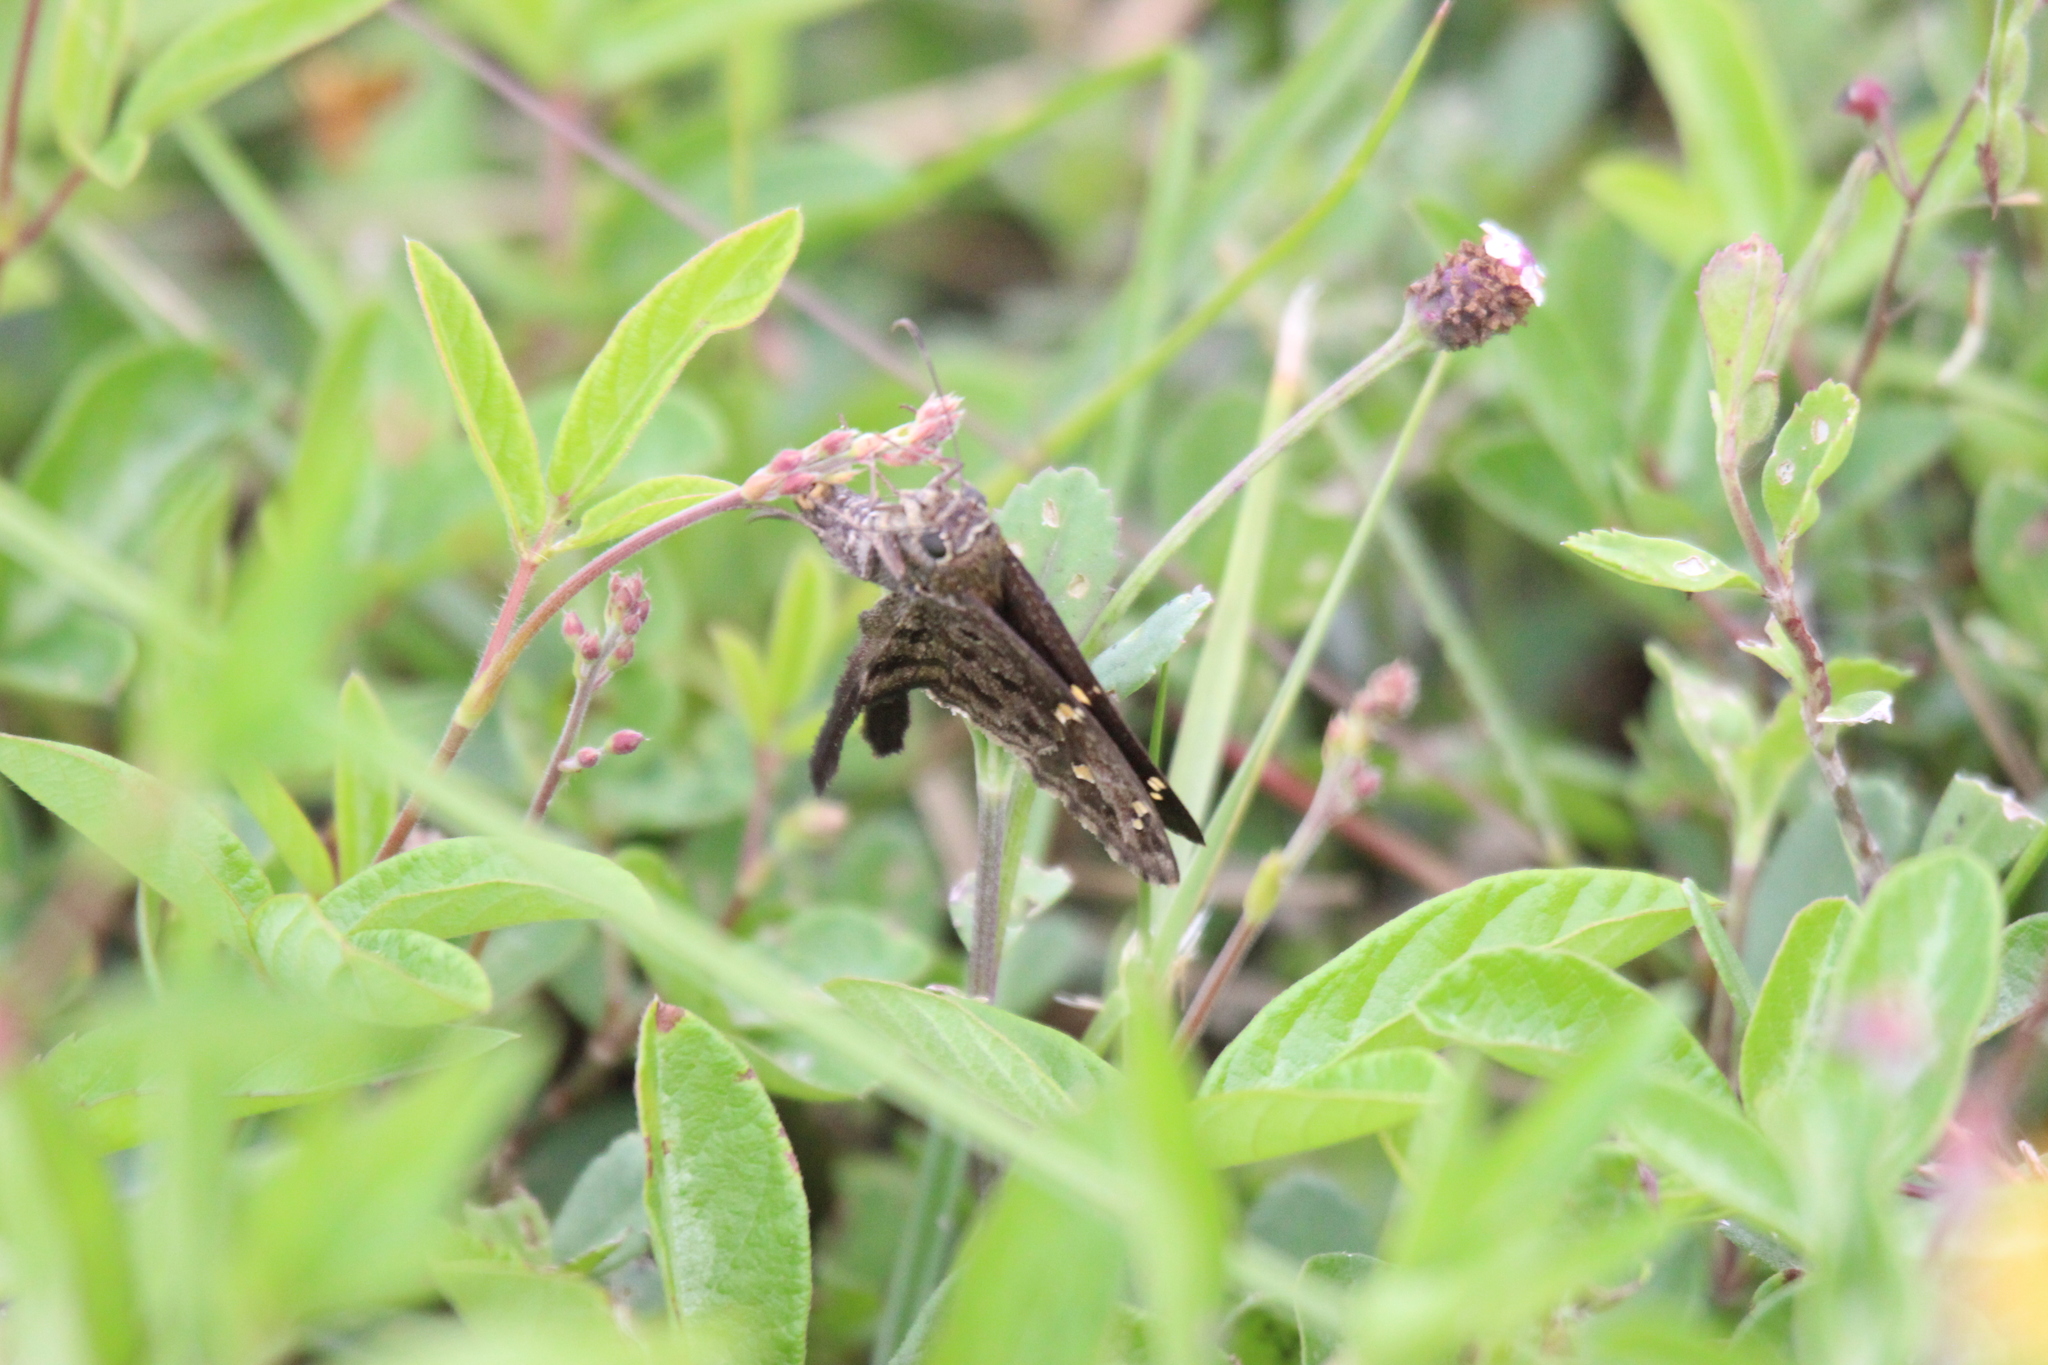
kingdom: Animalia
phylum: Arthropoda
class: Insecta
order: Lepidoptera
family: Hesperiidae
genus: Thorybes
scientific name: Thorybes
